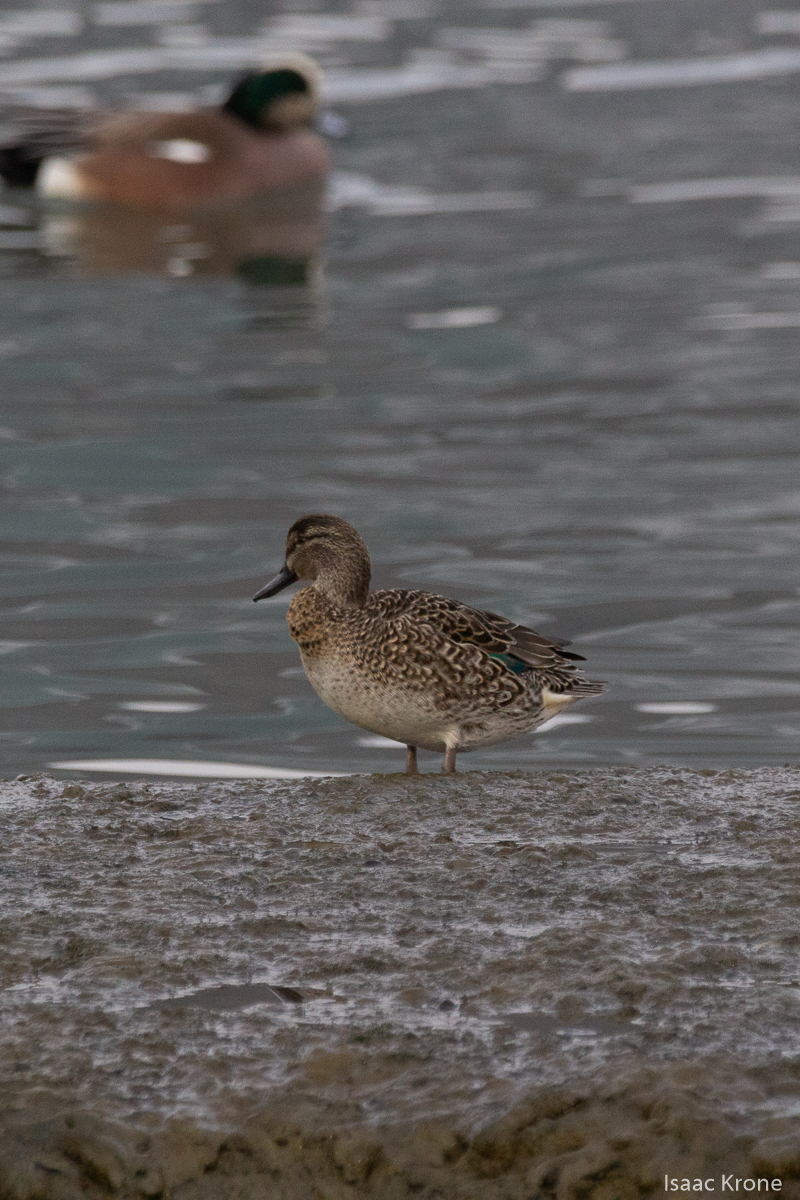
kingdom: Animalia
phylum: Chordata
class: Aves
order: Anseriformes
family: Anatidae
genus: Anas
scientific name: Anas crecca
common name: Eurasian teal
